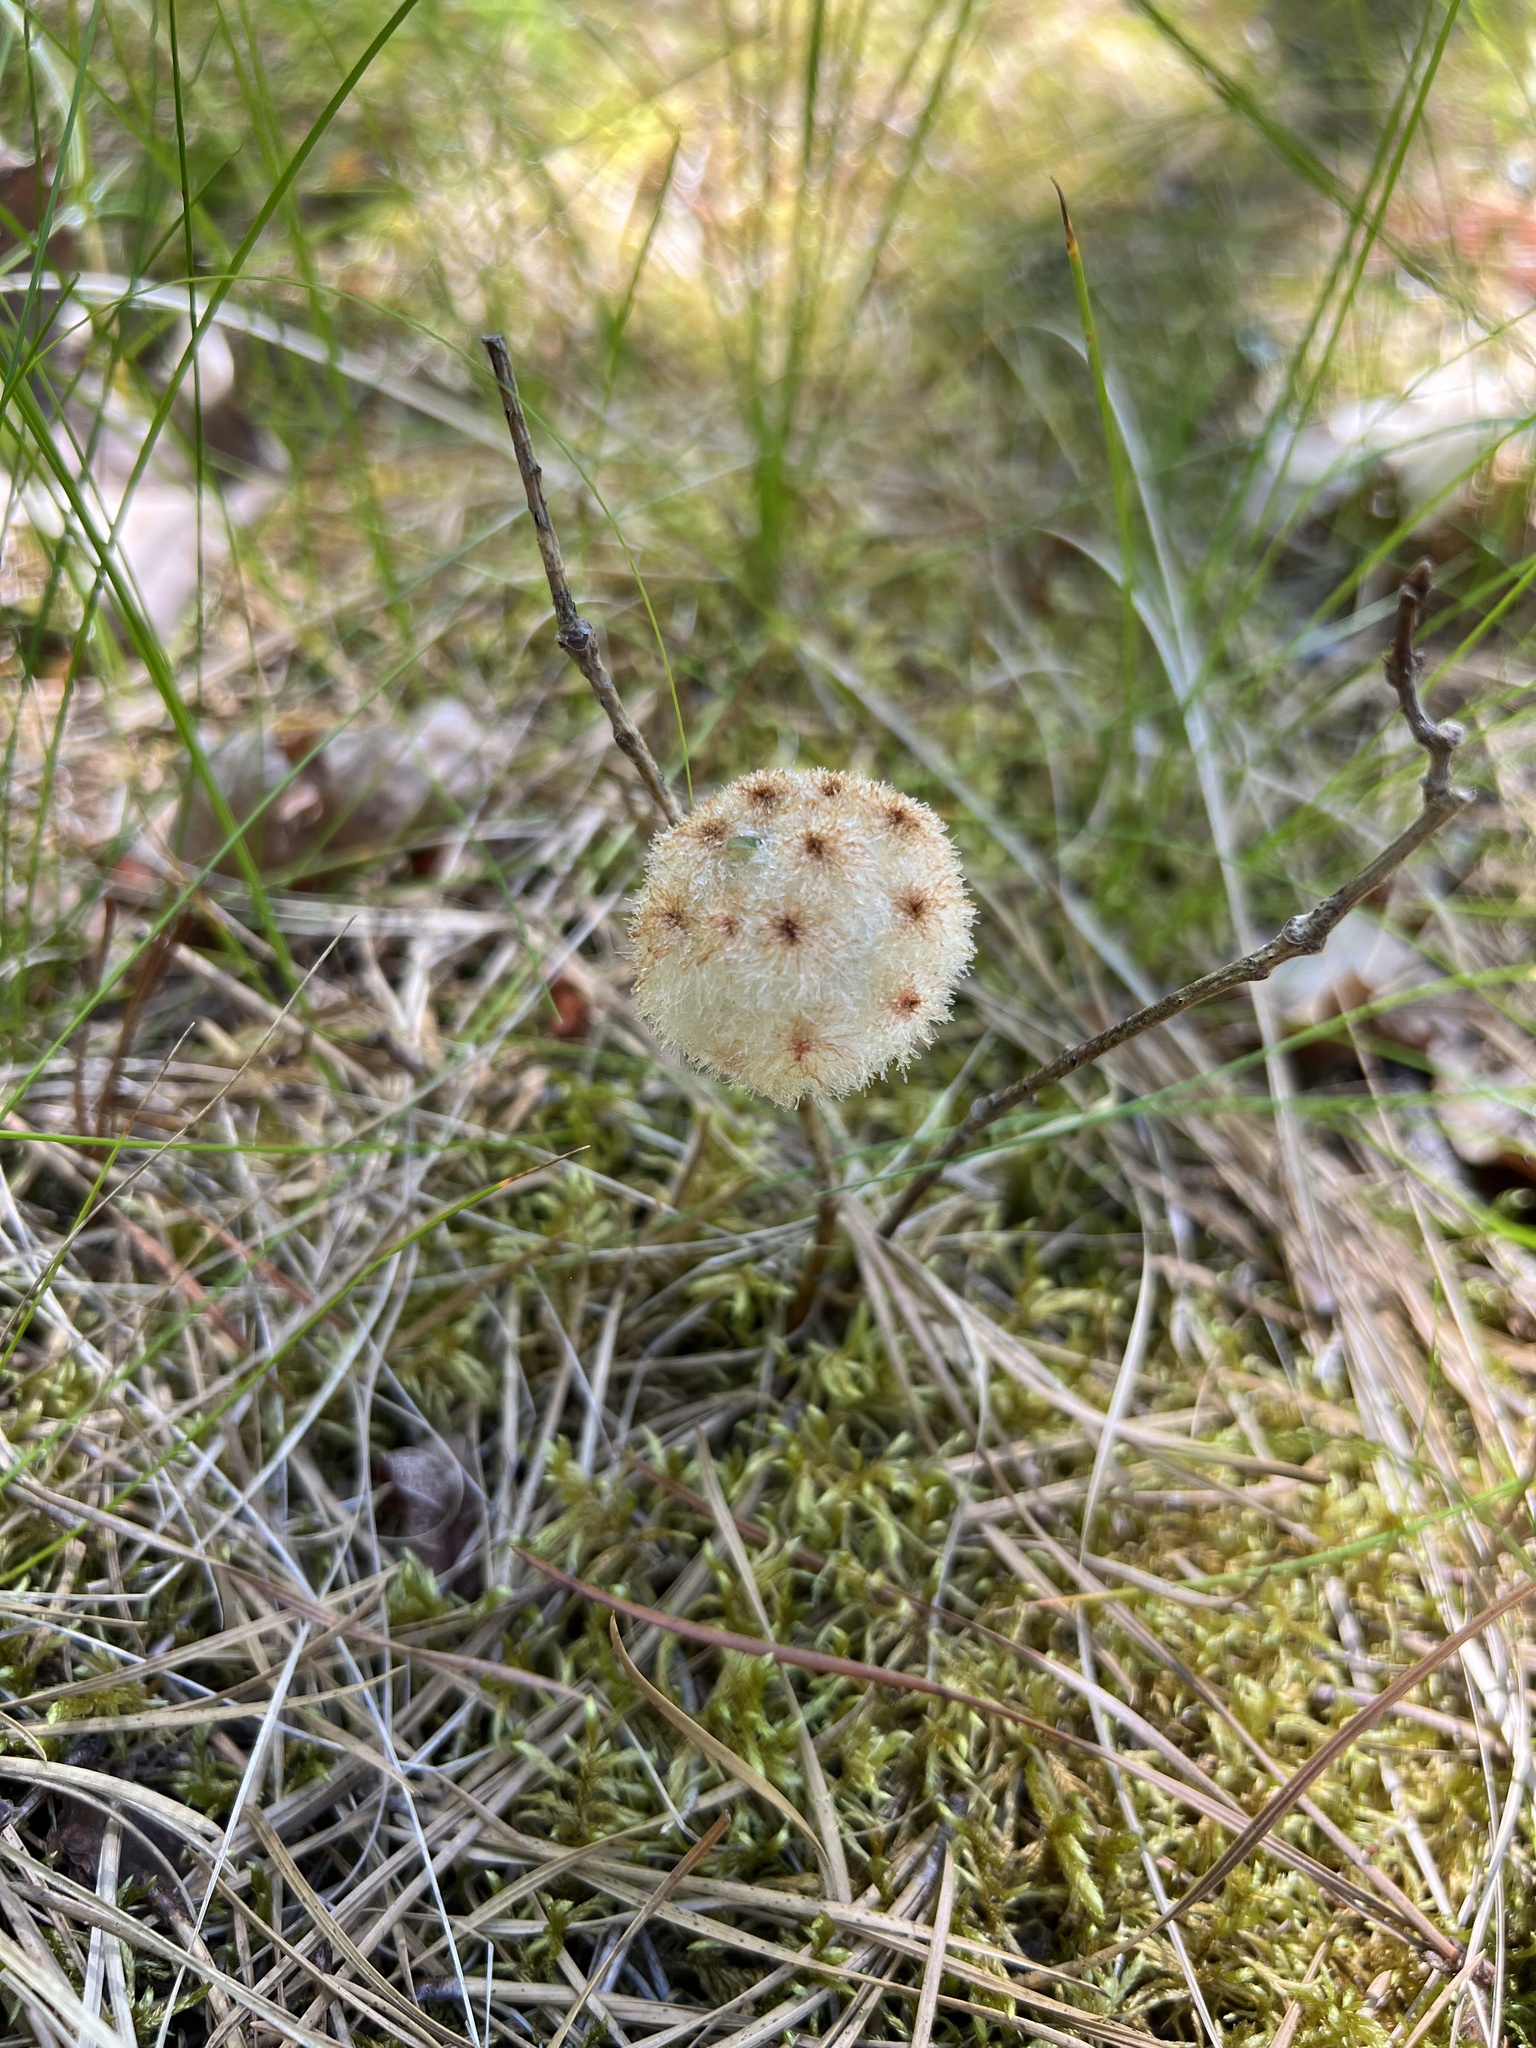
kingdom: Animalia
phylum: Arthropoda
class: Insecta
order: Hymenoptera
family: Cynipidae
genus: Callirhytis
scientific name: Callirhytis
